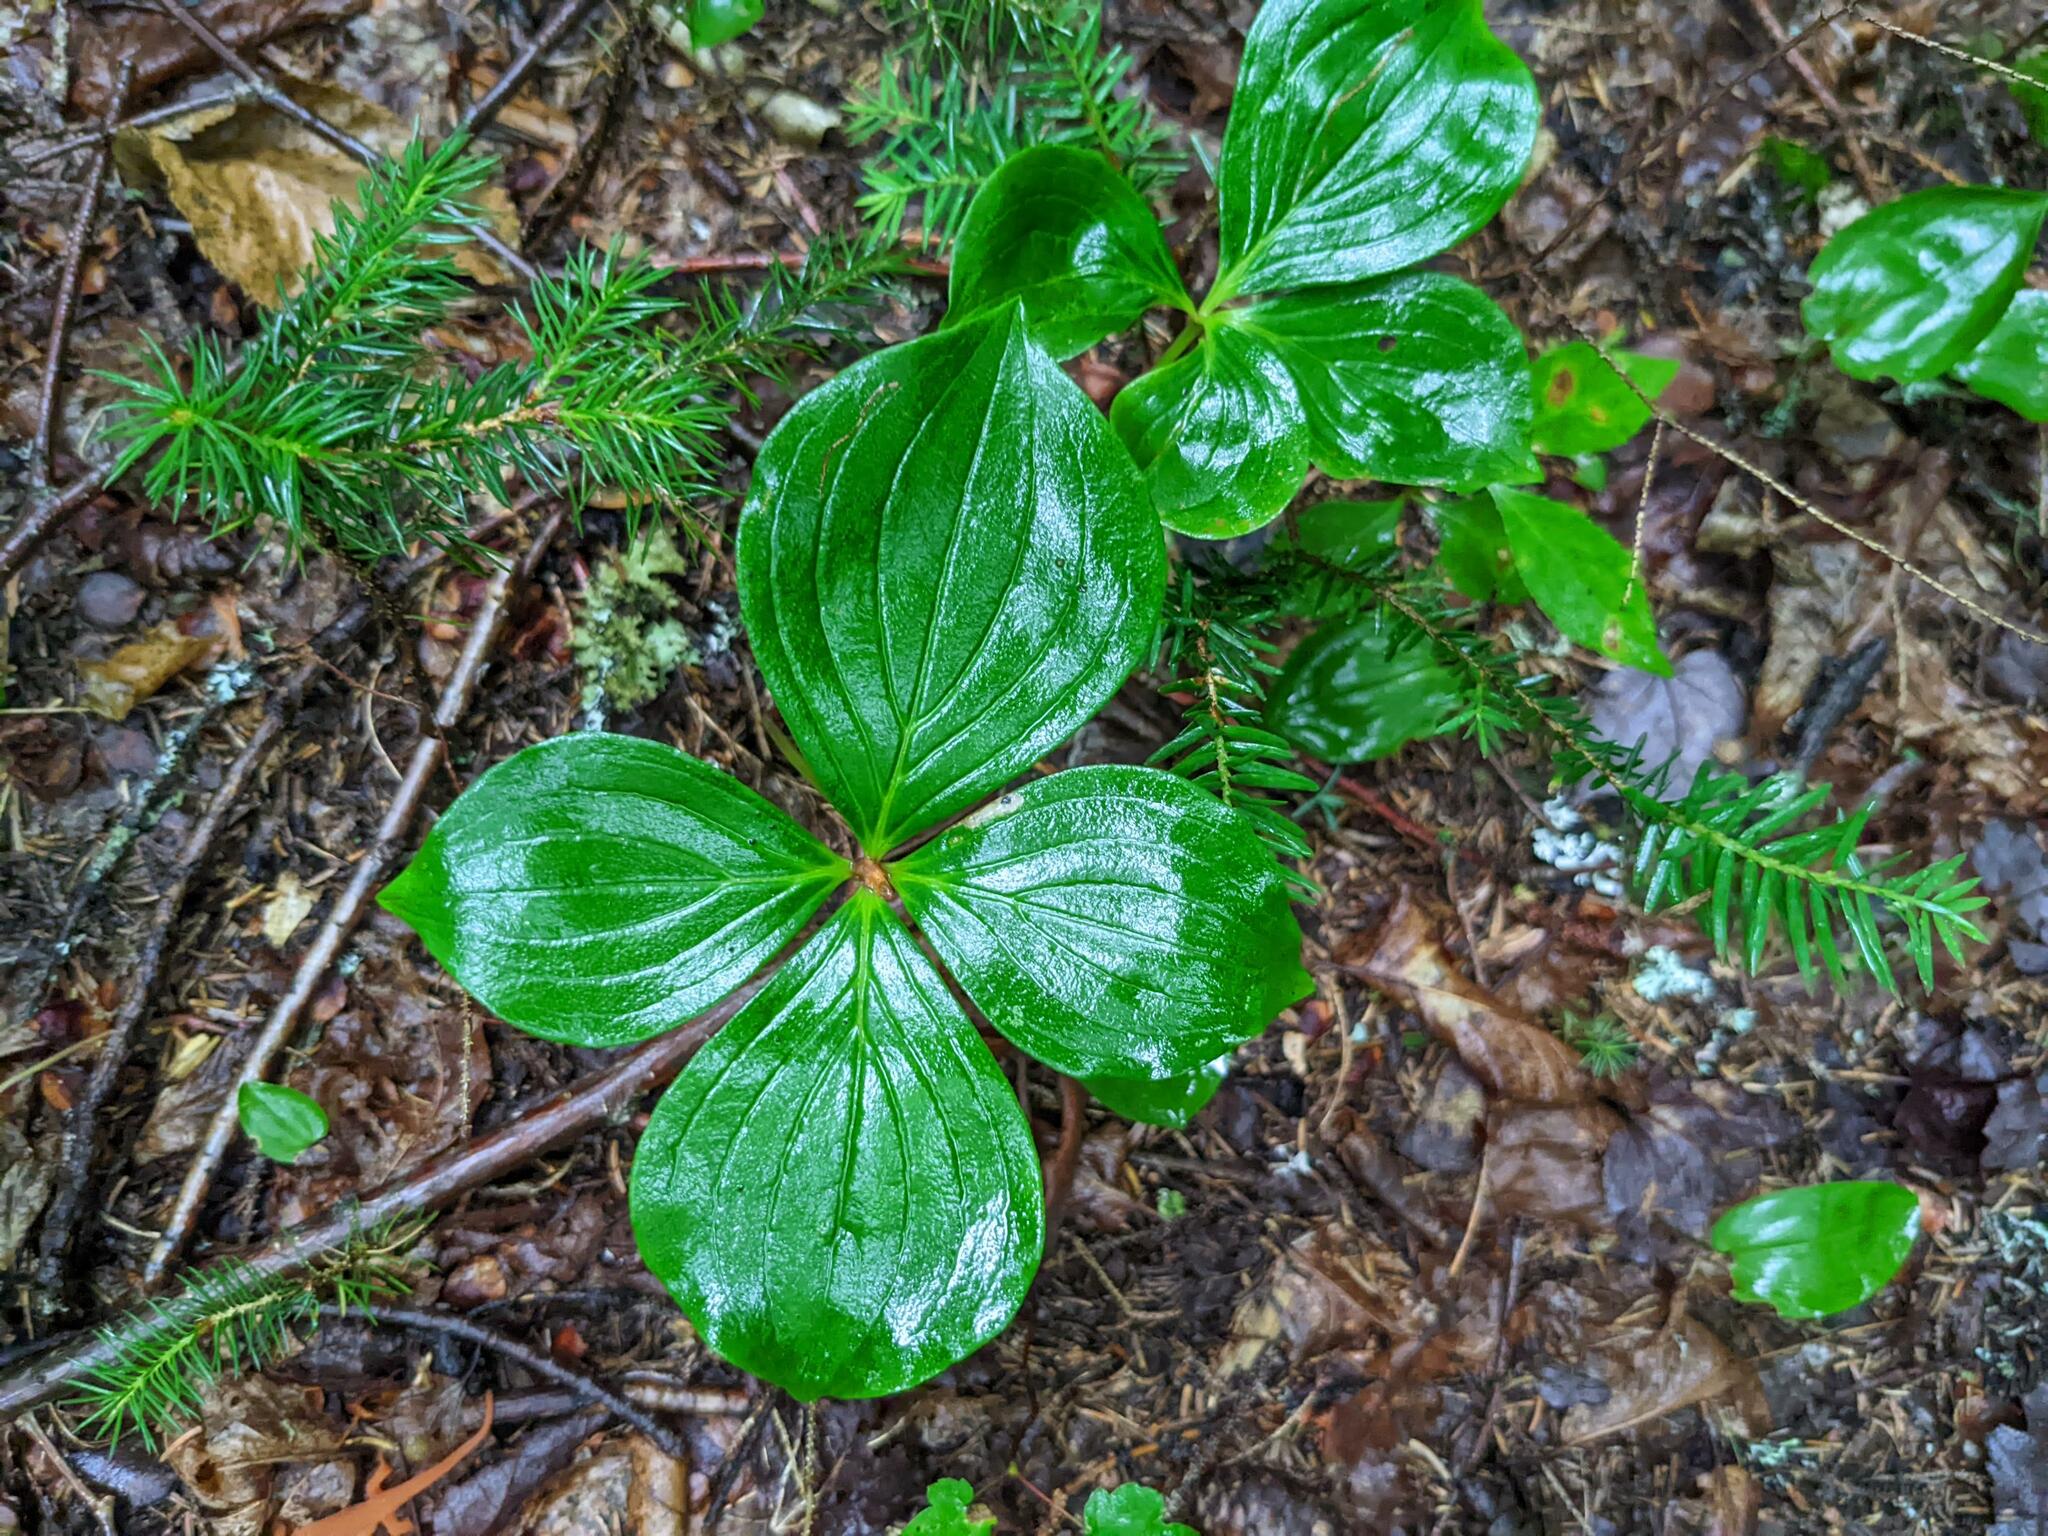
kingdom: Plantae
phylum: Tracheophyta
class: Magnoliopsida
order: Cornales
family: Cornaceae
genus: Cornus
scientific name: Cornus canadensis
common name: Creeping dogwood
